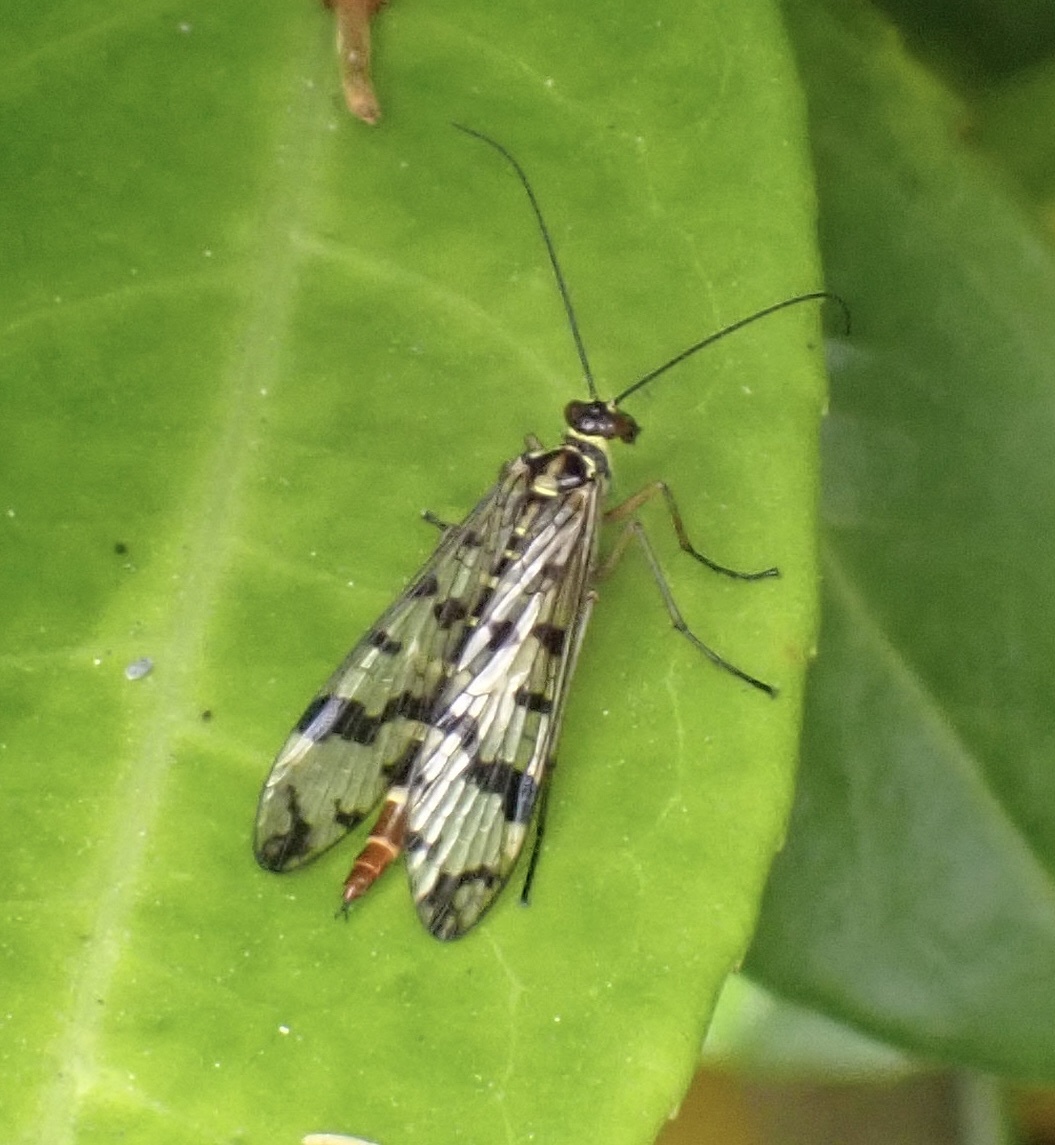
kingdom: Animalia
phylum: Arthropoda
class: Insecta
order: Mecoptera
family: Panorpidae
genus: Panorpa
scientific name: Panorpa communis
